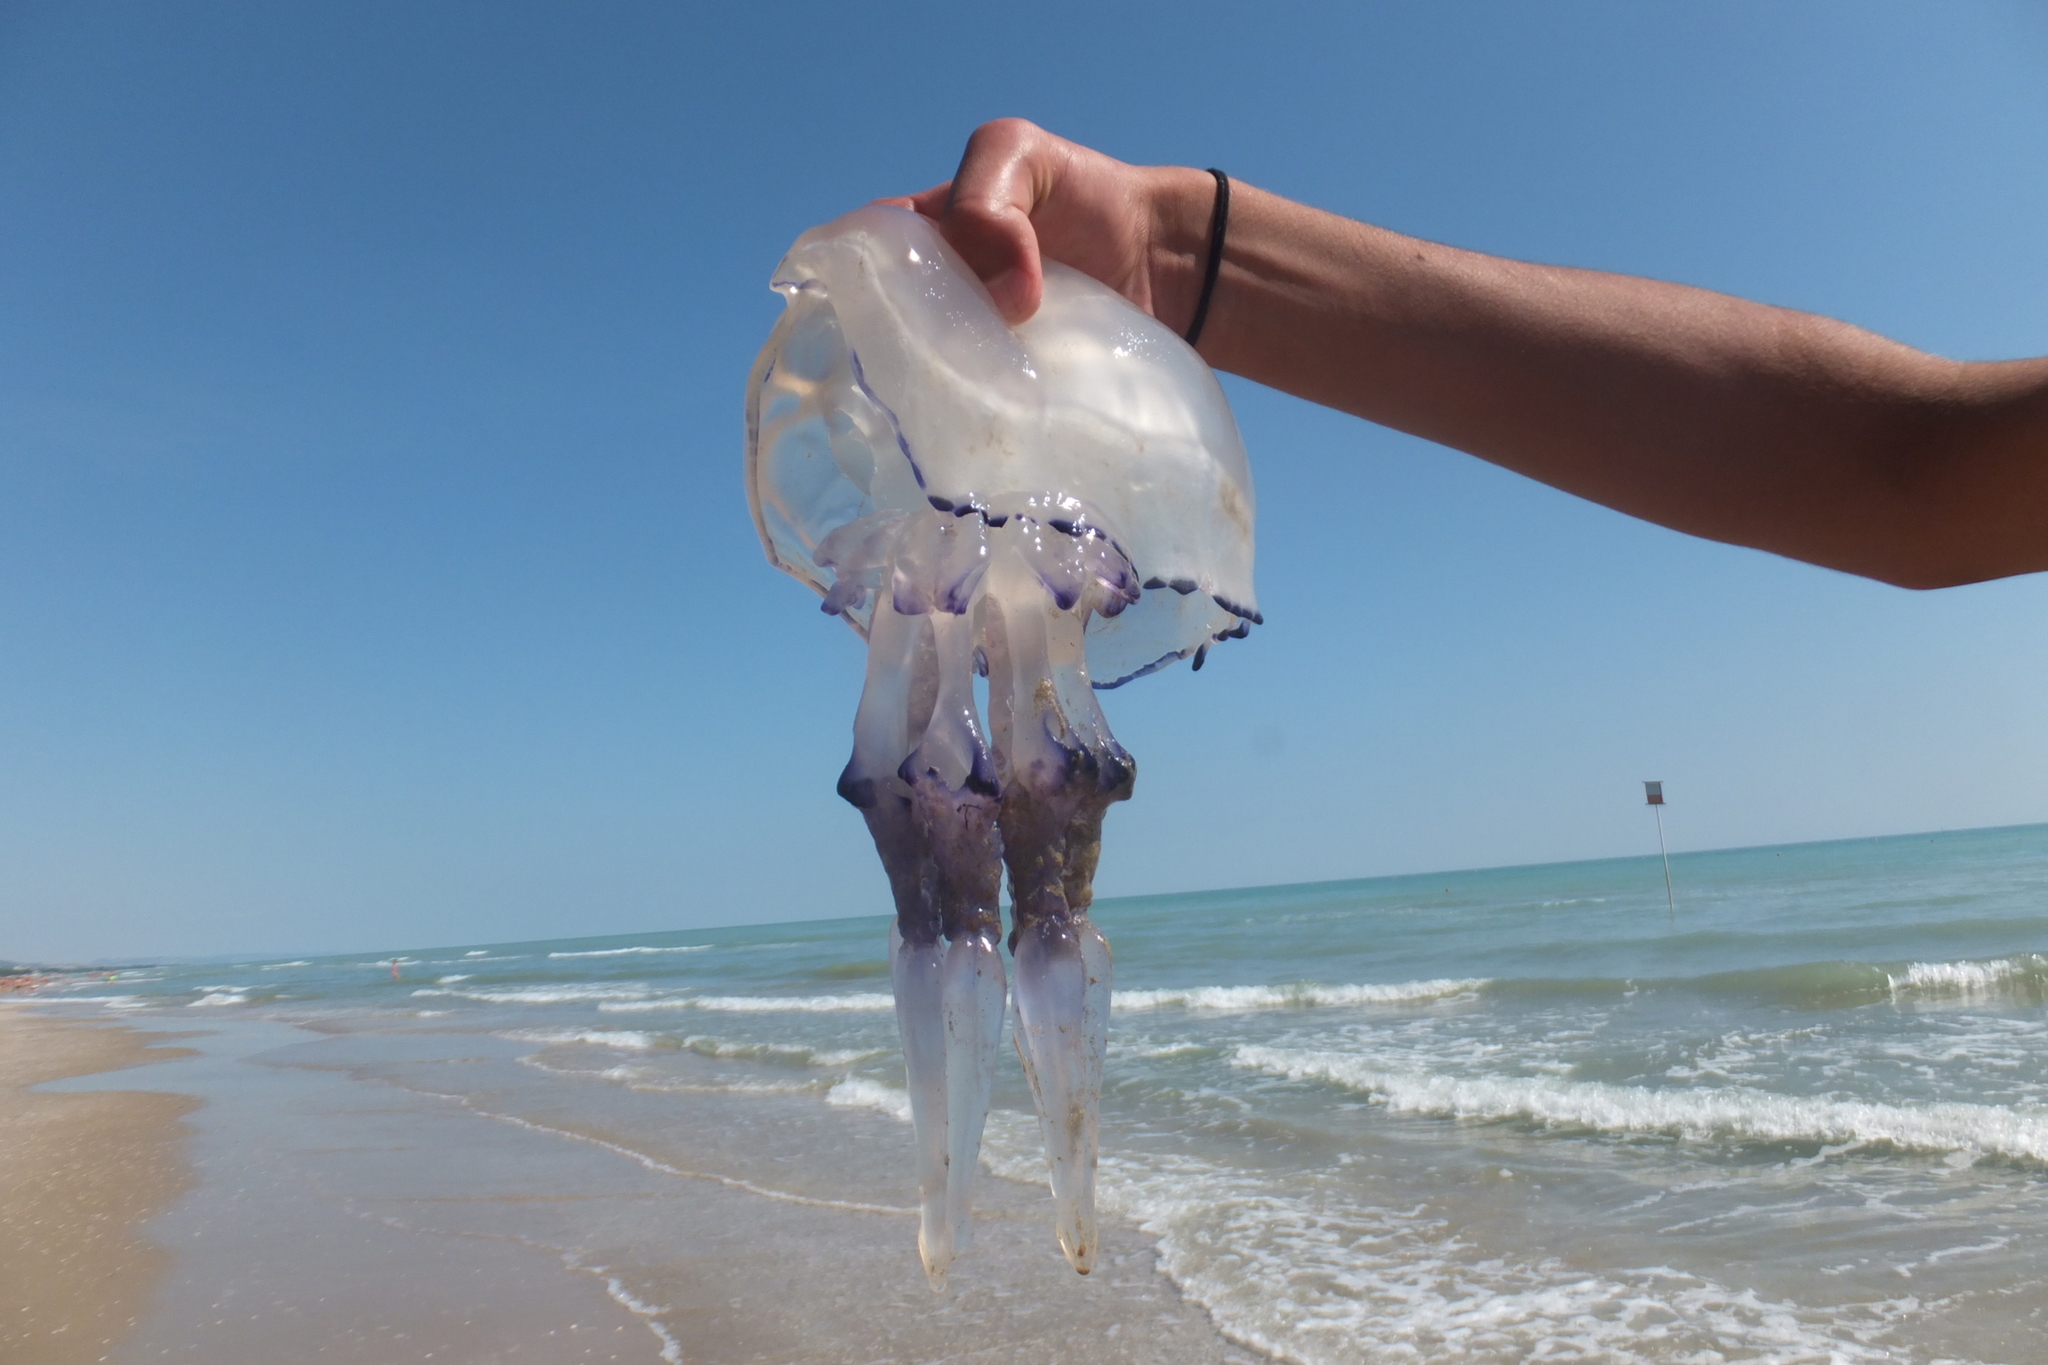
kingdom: Animalia
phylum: Cnidaria
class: Scyphozoa
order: Rhizostomeae
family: Rhizostomatidae
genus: Rhizostoma
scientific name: Rhizostoma pulmo
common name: Barrel jellyfish
